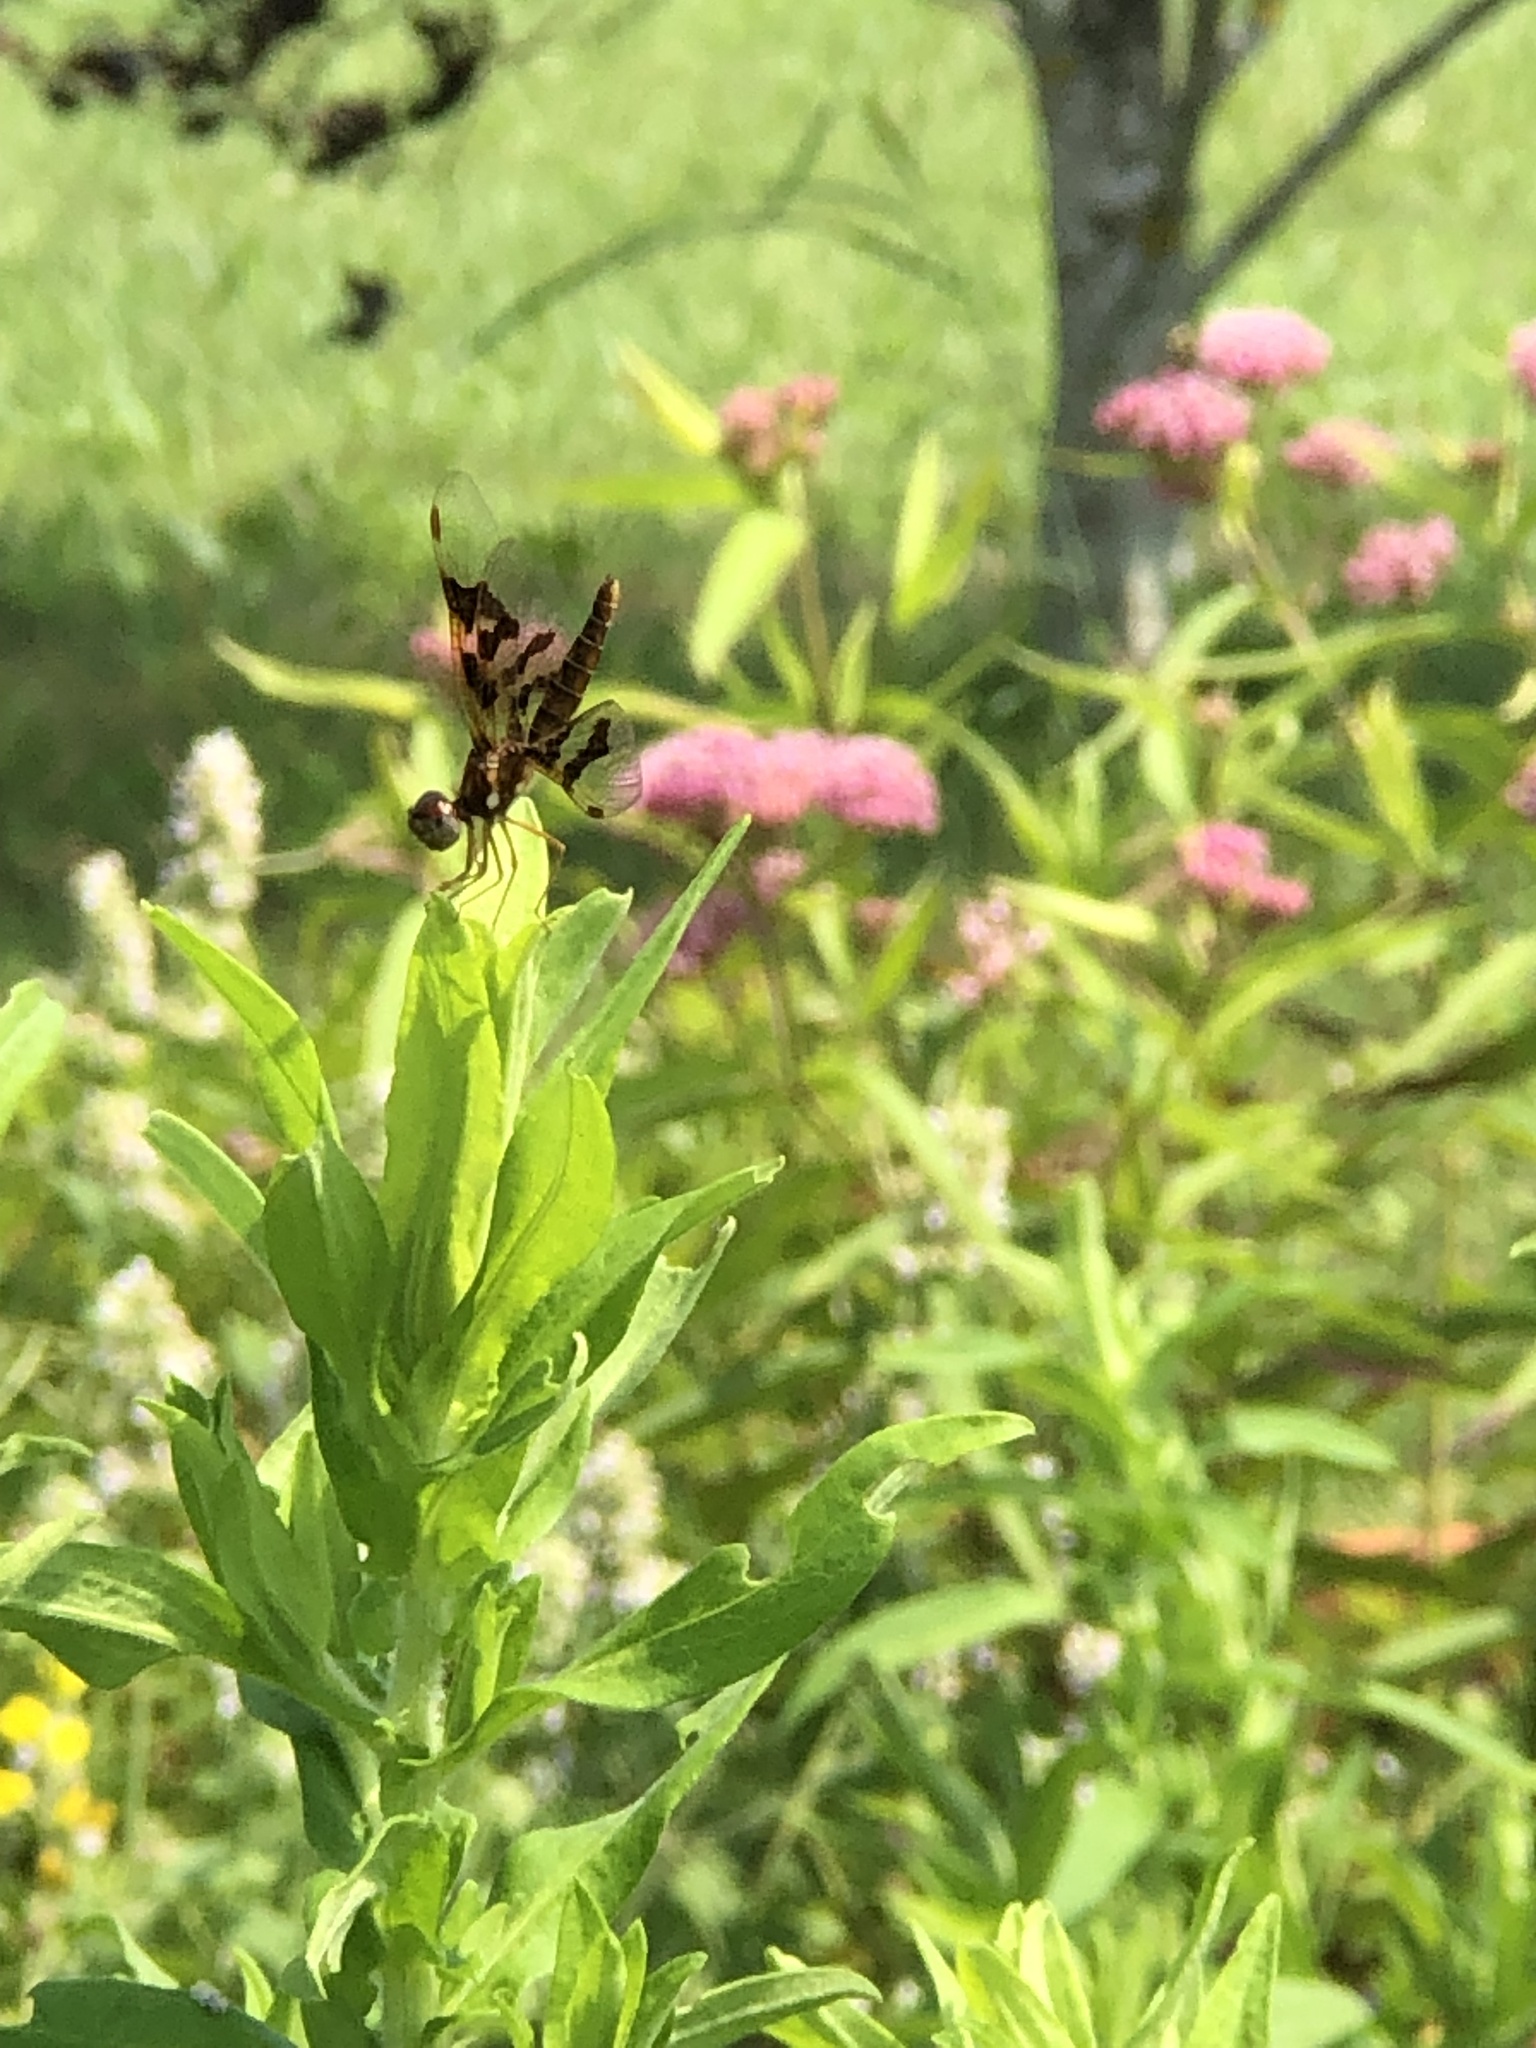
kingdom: Animalia
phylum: Arthropoda
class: Insecta
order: Odonata
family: Libellulidae
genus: Perithemis
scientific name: Perithemis tenera
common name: Eastern amberwing
